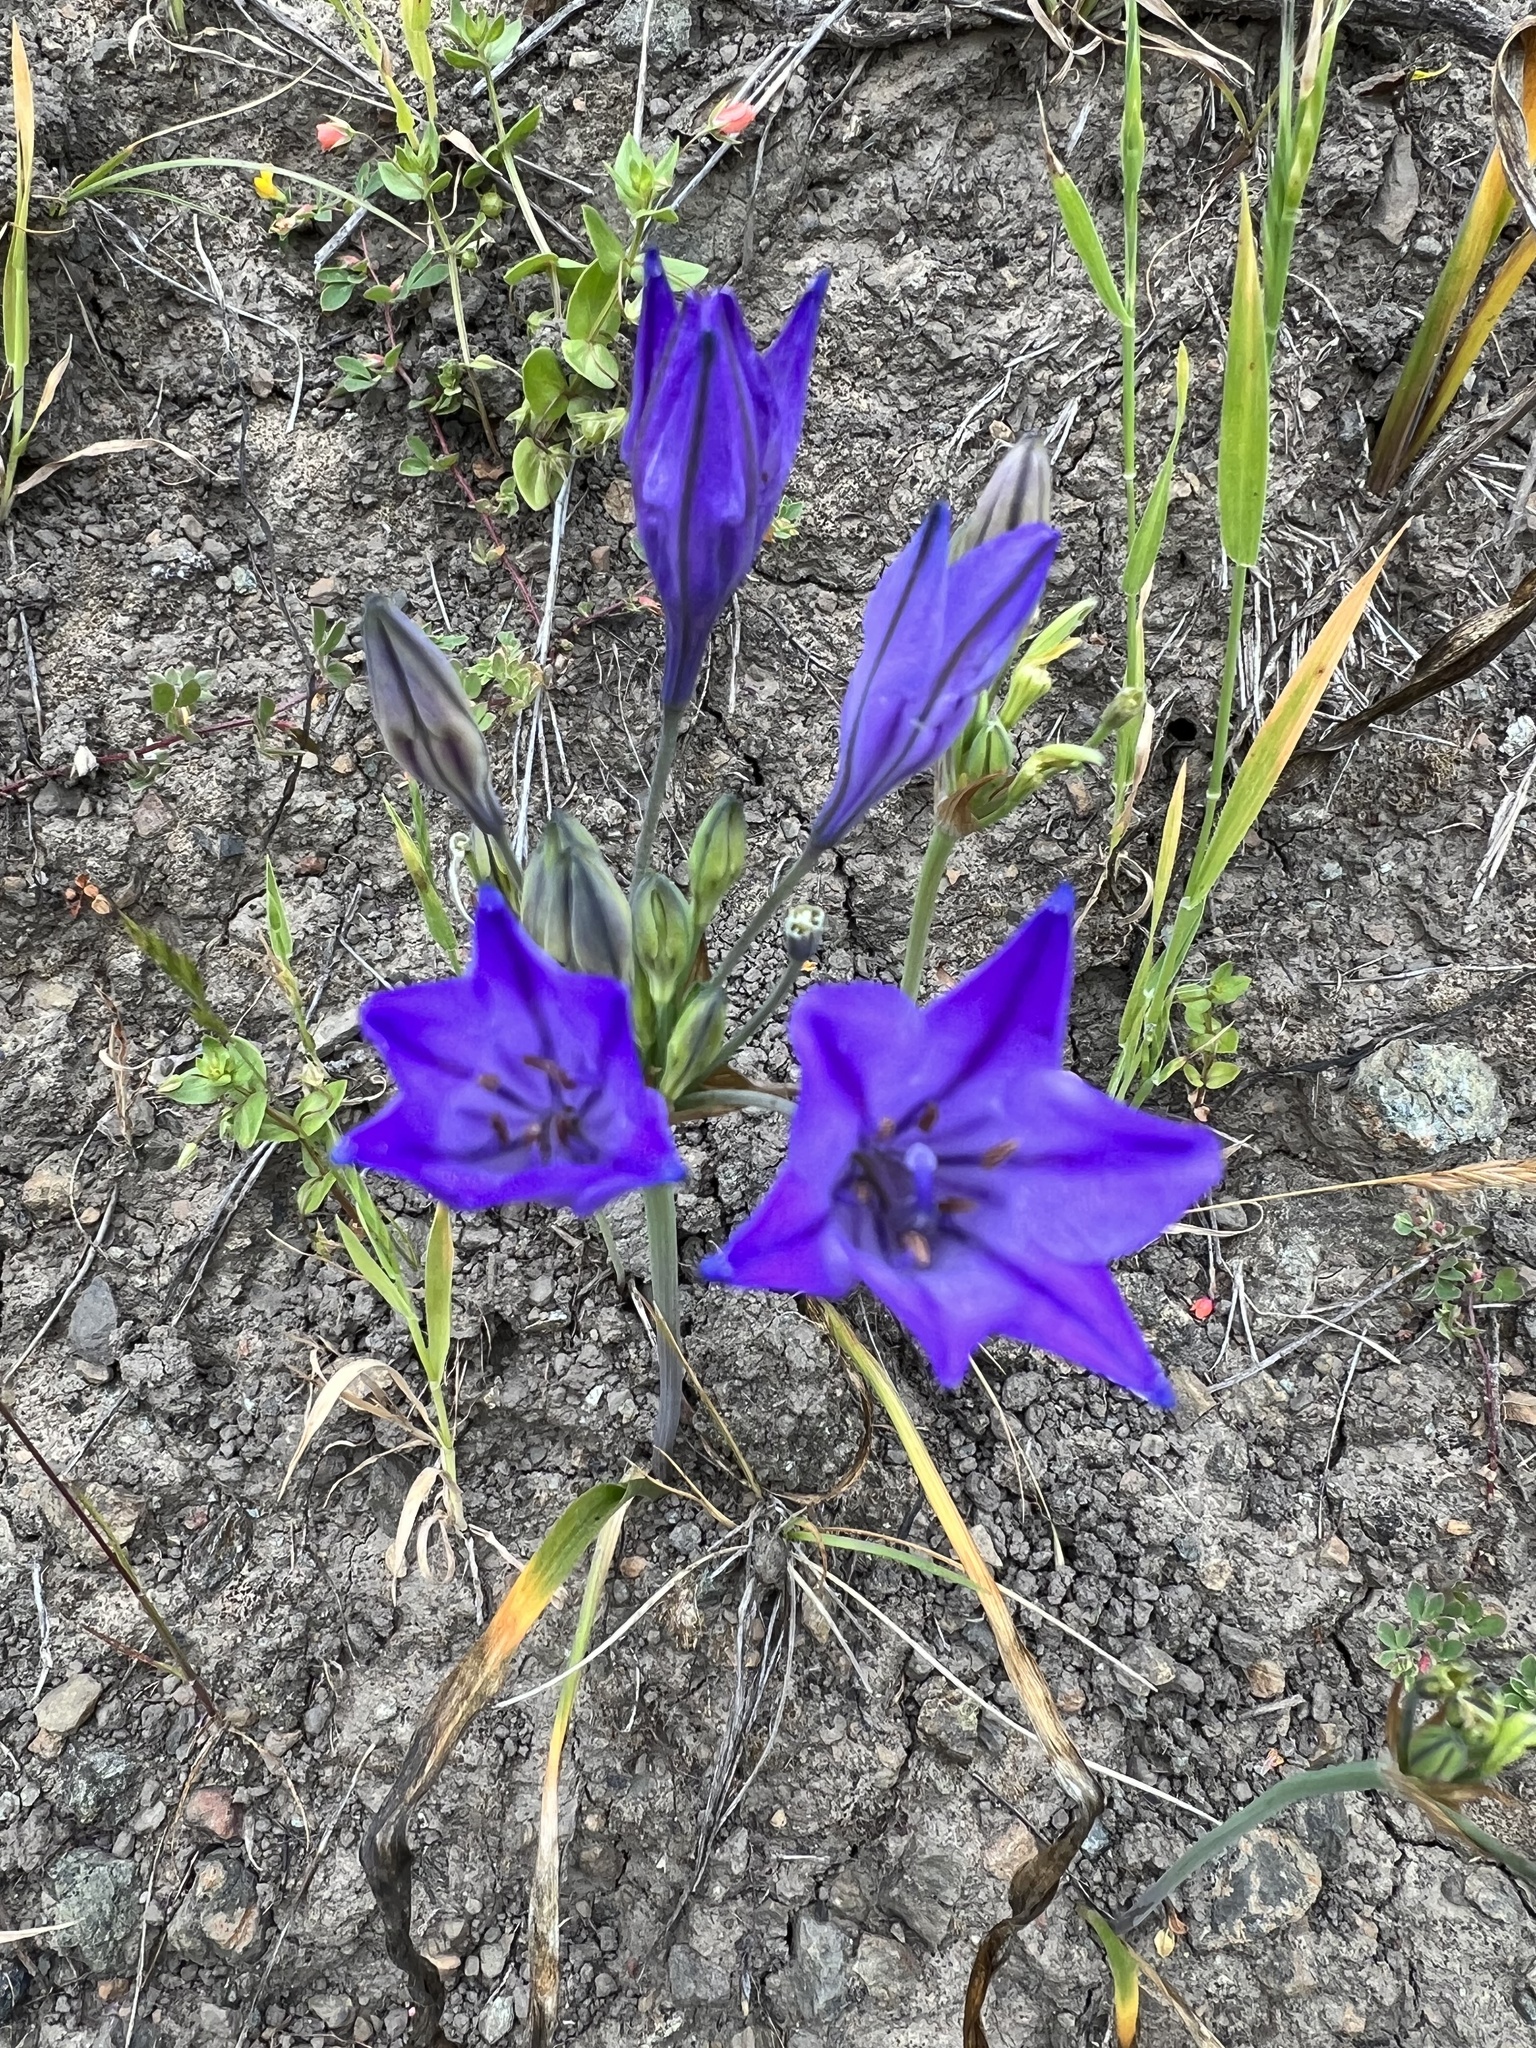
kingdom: Plantae
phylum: Tracheophyta
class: Liliopsida
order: Asparagales
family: Asparagaceae
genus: Triteleia
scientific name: Triteleia laxa
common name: Triplet-lily
